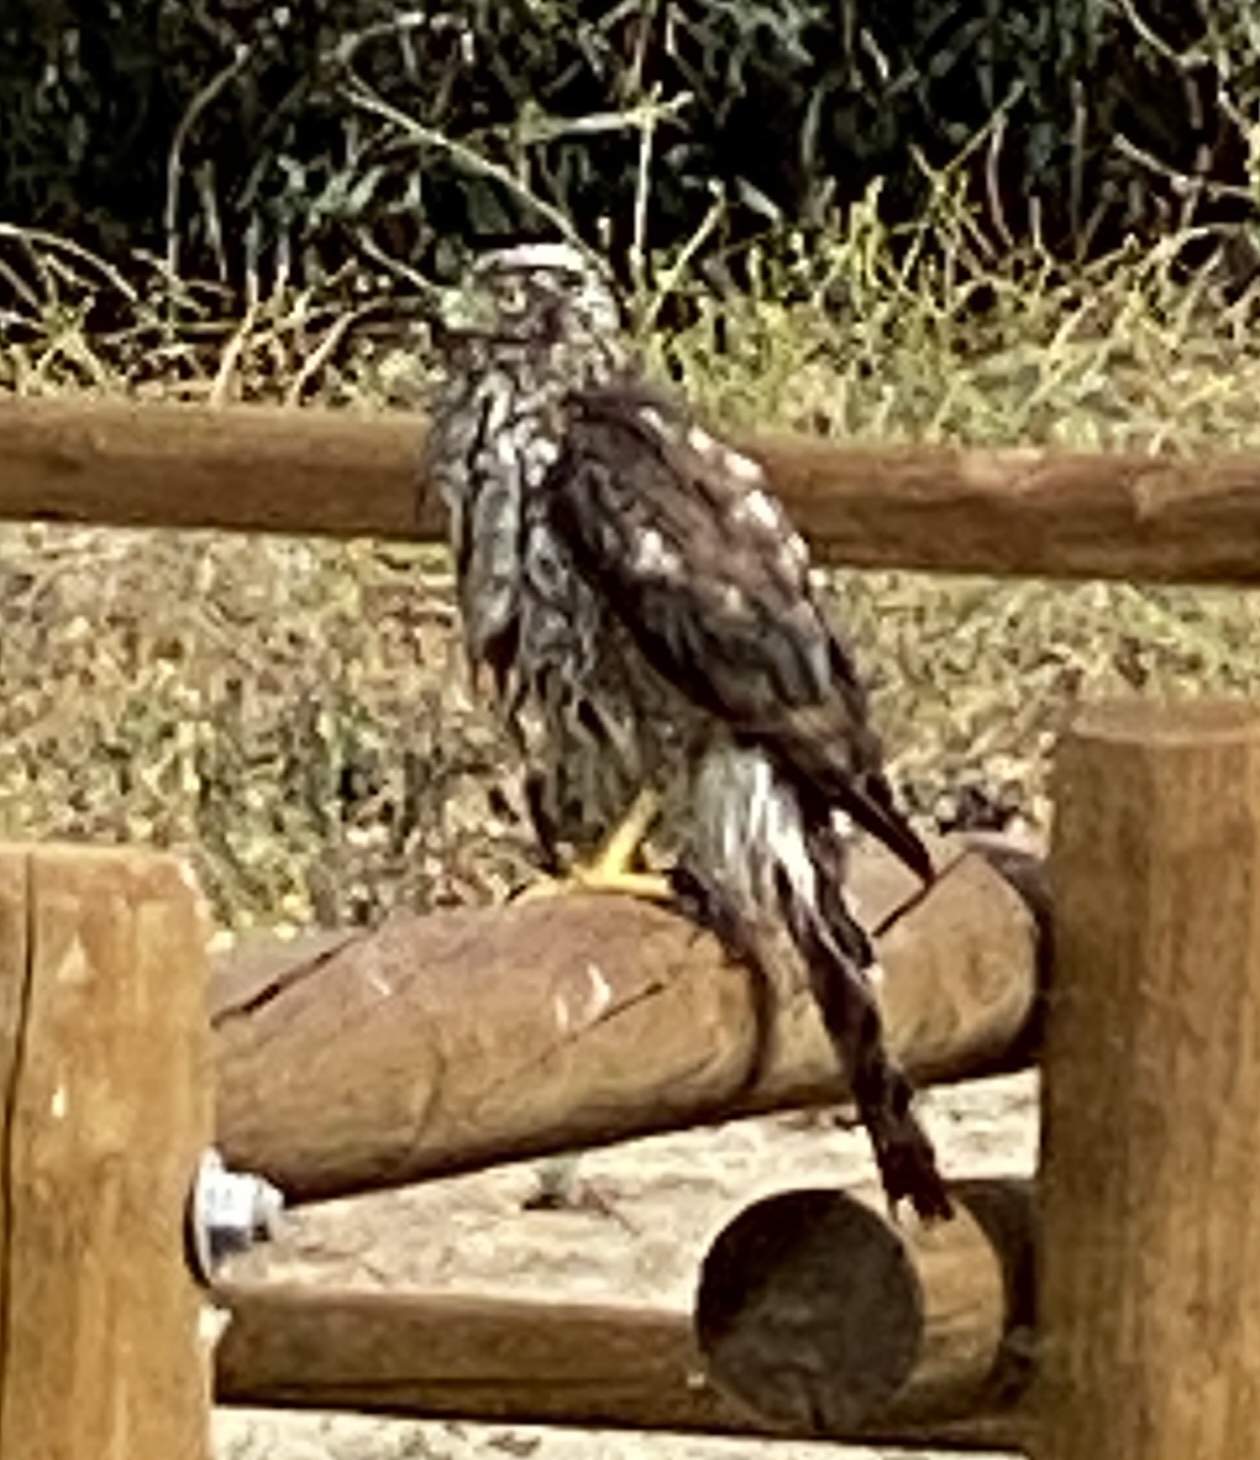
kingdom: Animalia
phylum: Chordata
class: Aves
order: Accipitriformes
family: Accipitridae
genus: Accipiter
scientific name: Accipiter cooperii
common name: Cooper's hawk
